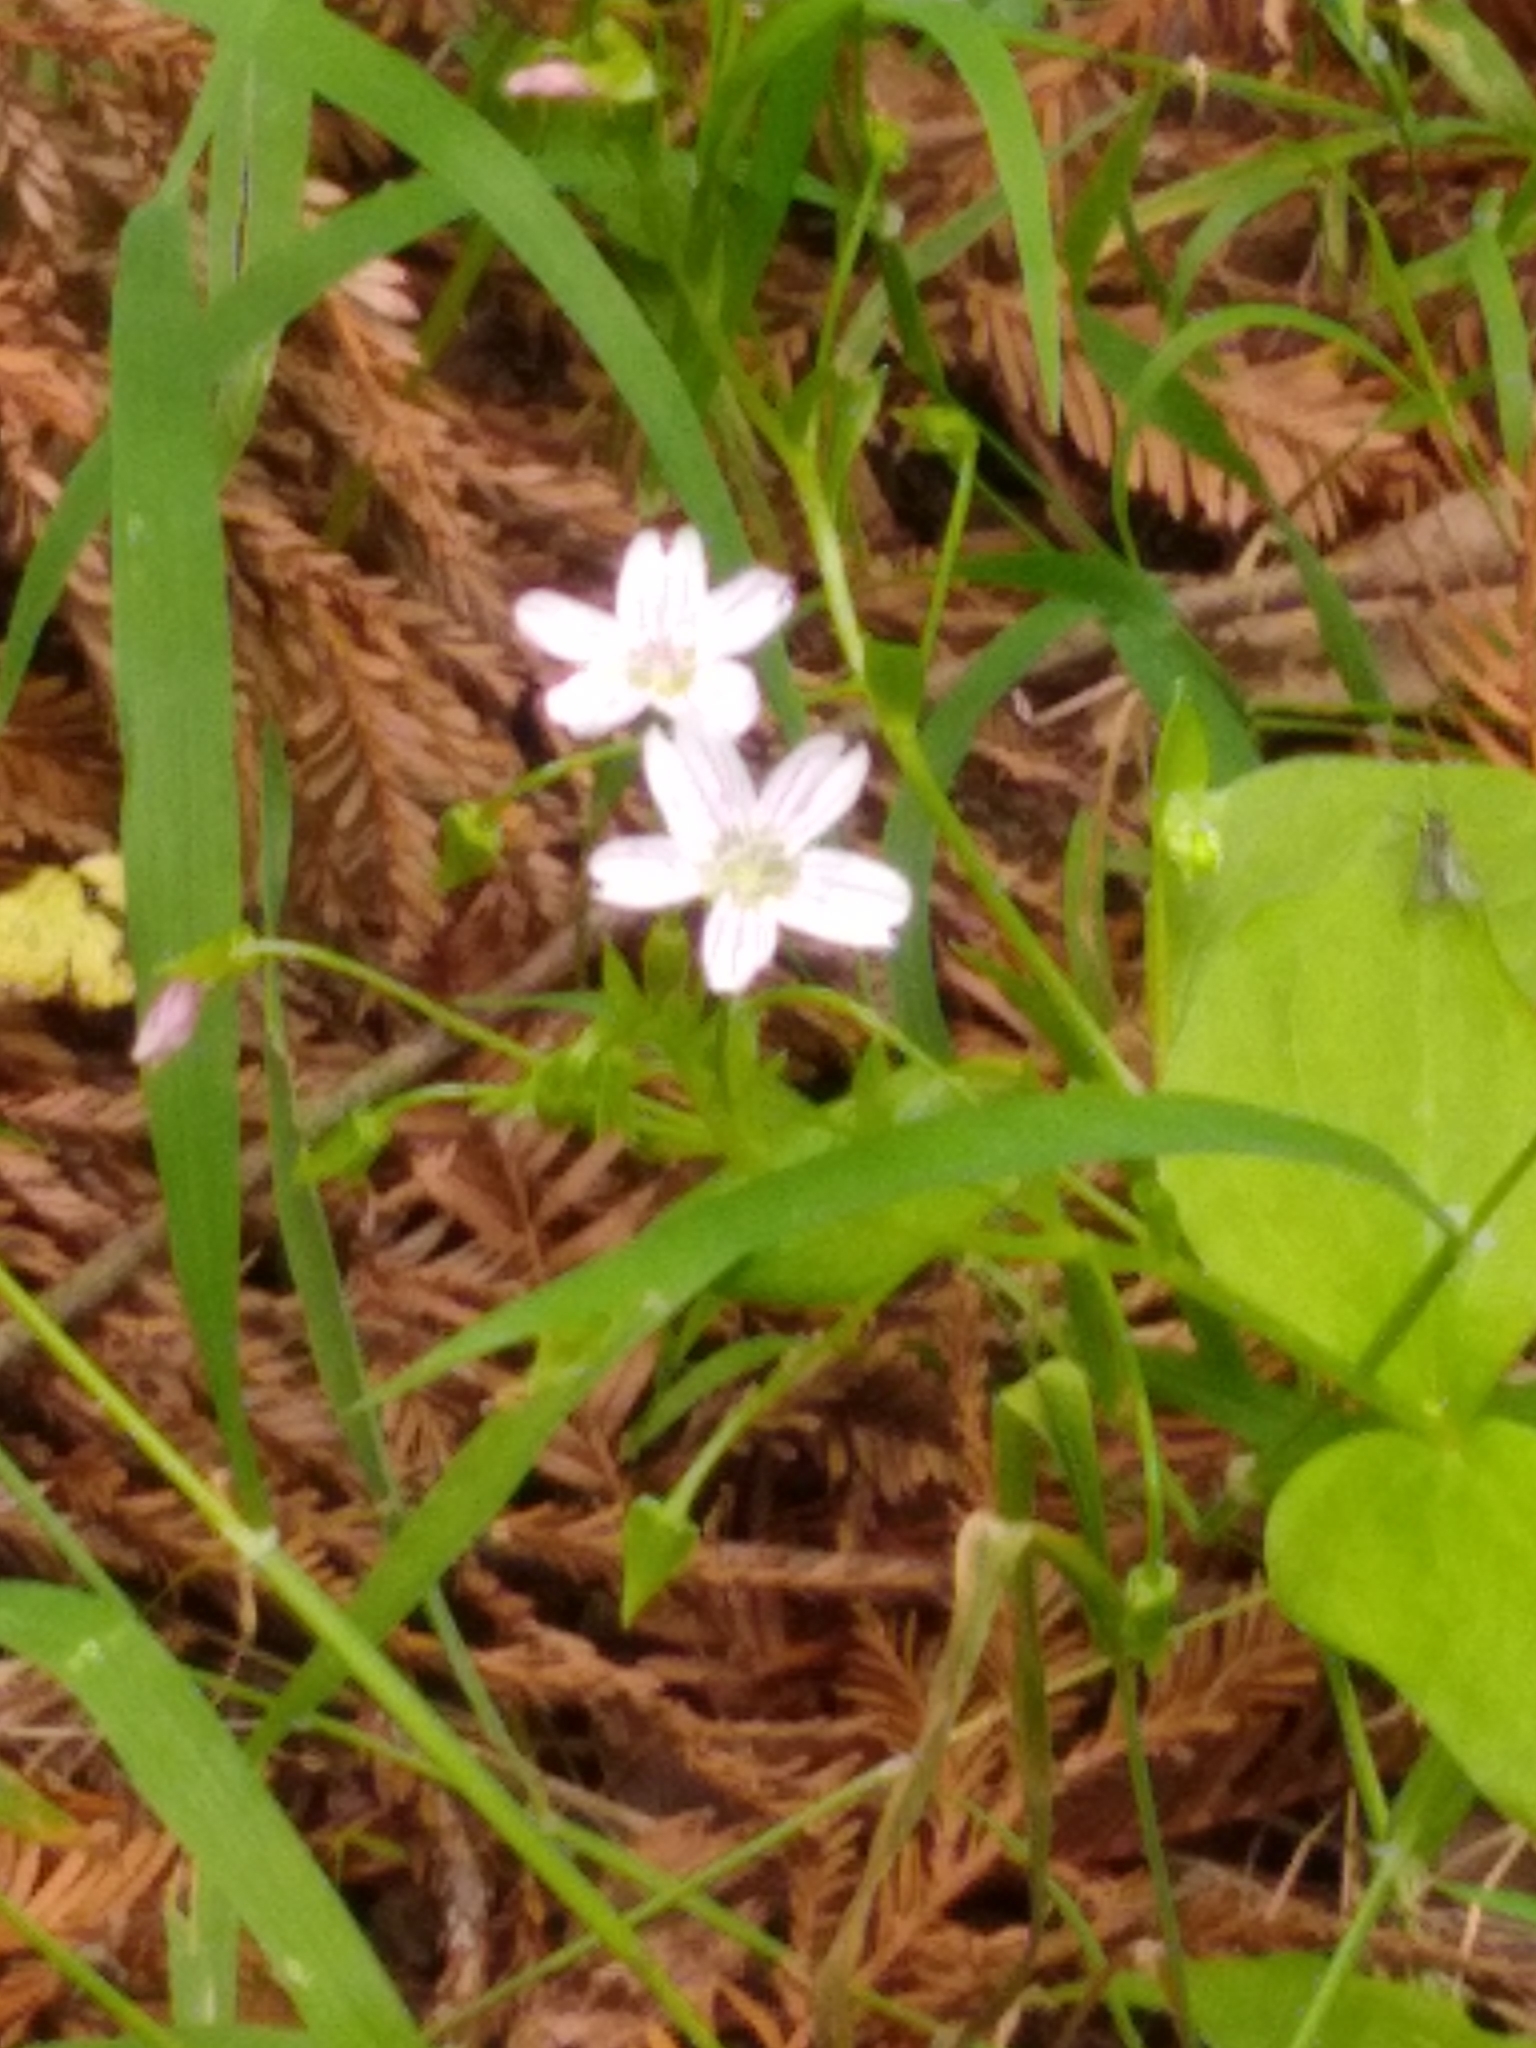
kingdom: Plantae
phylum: Tracheophyta
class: Magnoliopsida
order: Caryophyllales
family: Montiaceae
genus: Claytonia
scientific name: Claytonia sibirica
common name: Pink purslane
